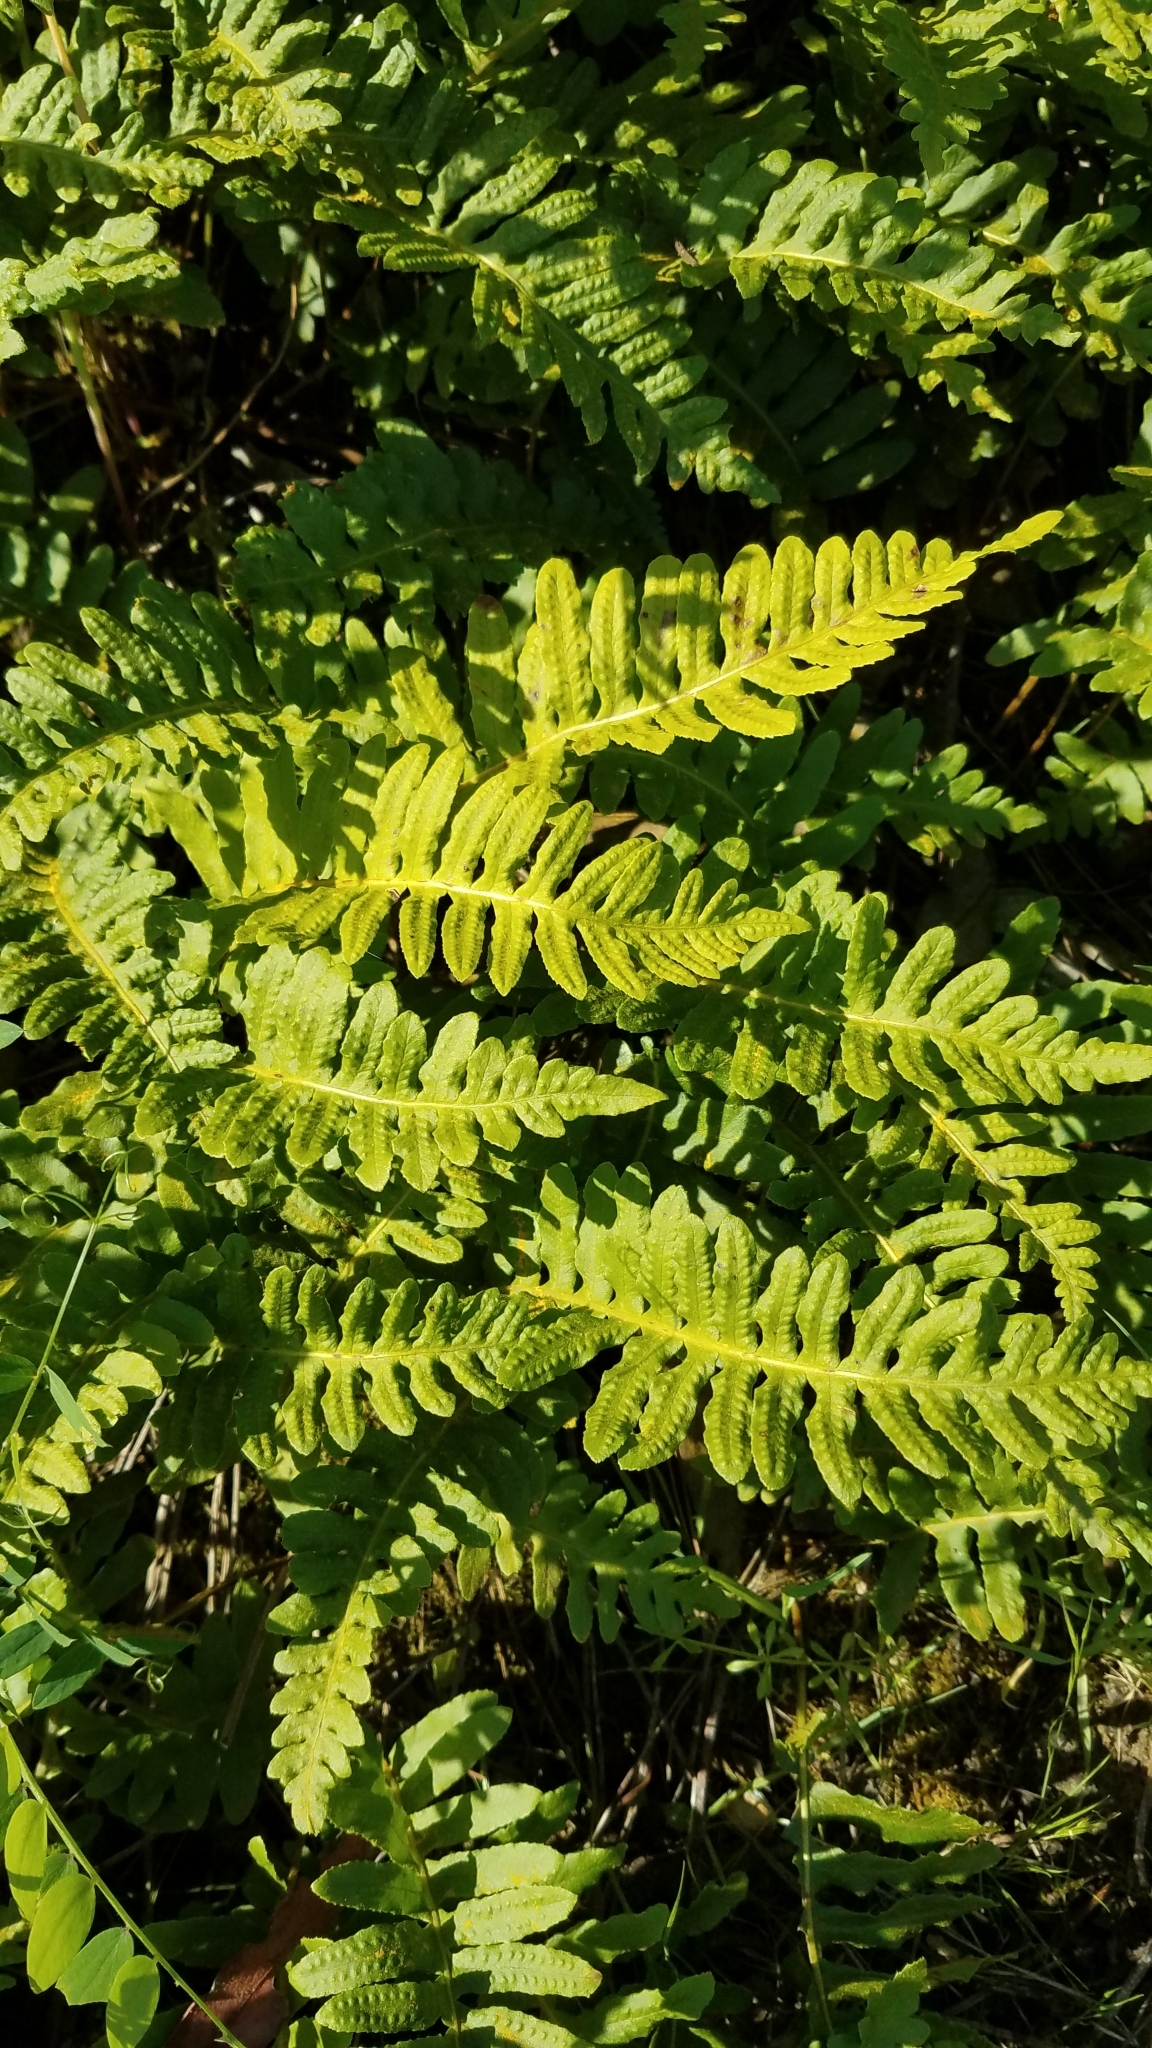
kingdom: Plantae
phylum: Tracheophyta
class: Polypodiopsida
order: Polypodiales
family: Polypodiaceae
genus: Polypodium
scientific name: Polypodium californicum
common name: California polypody
